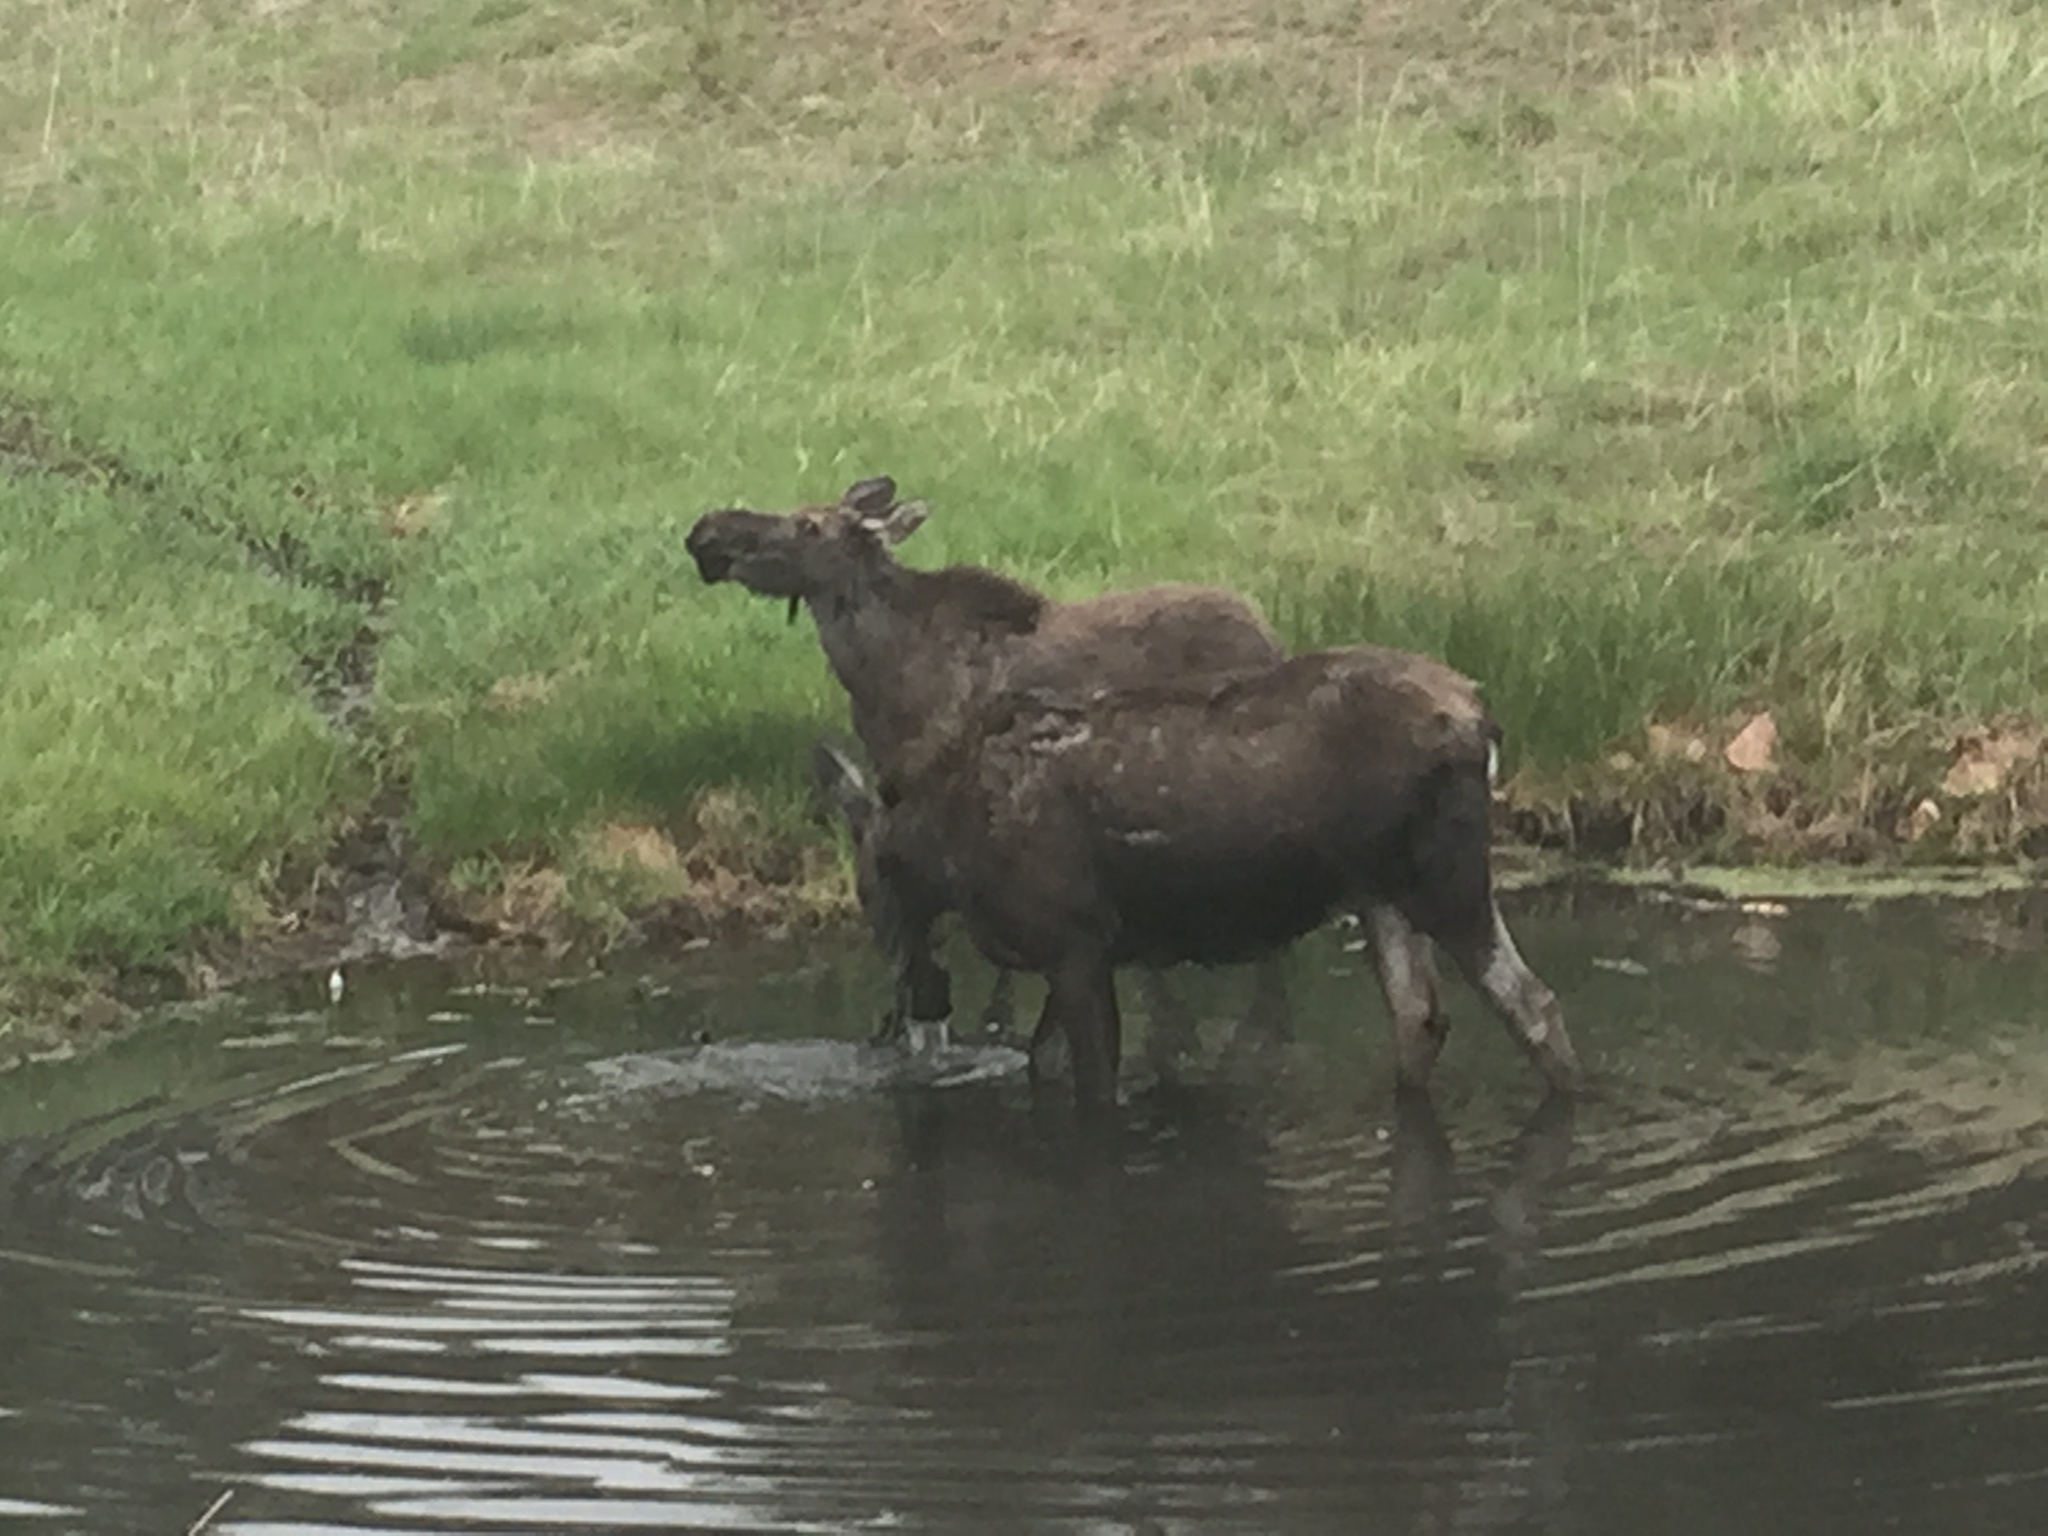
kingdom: Animalia
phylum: Chordata
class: Mammalia
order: Artiodactyla
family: Cervidae
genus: Alces
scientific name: Alces alces
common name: Moose
